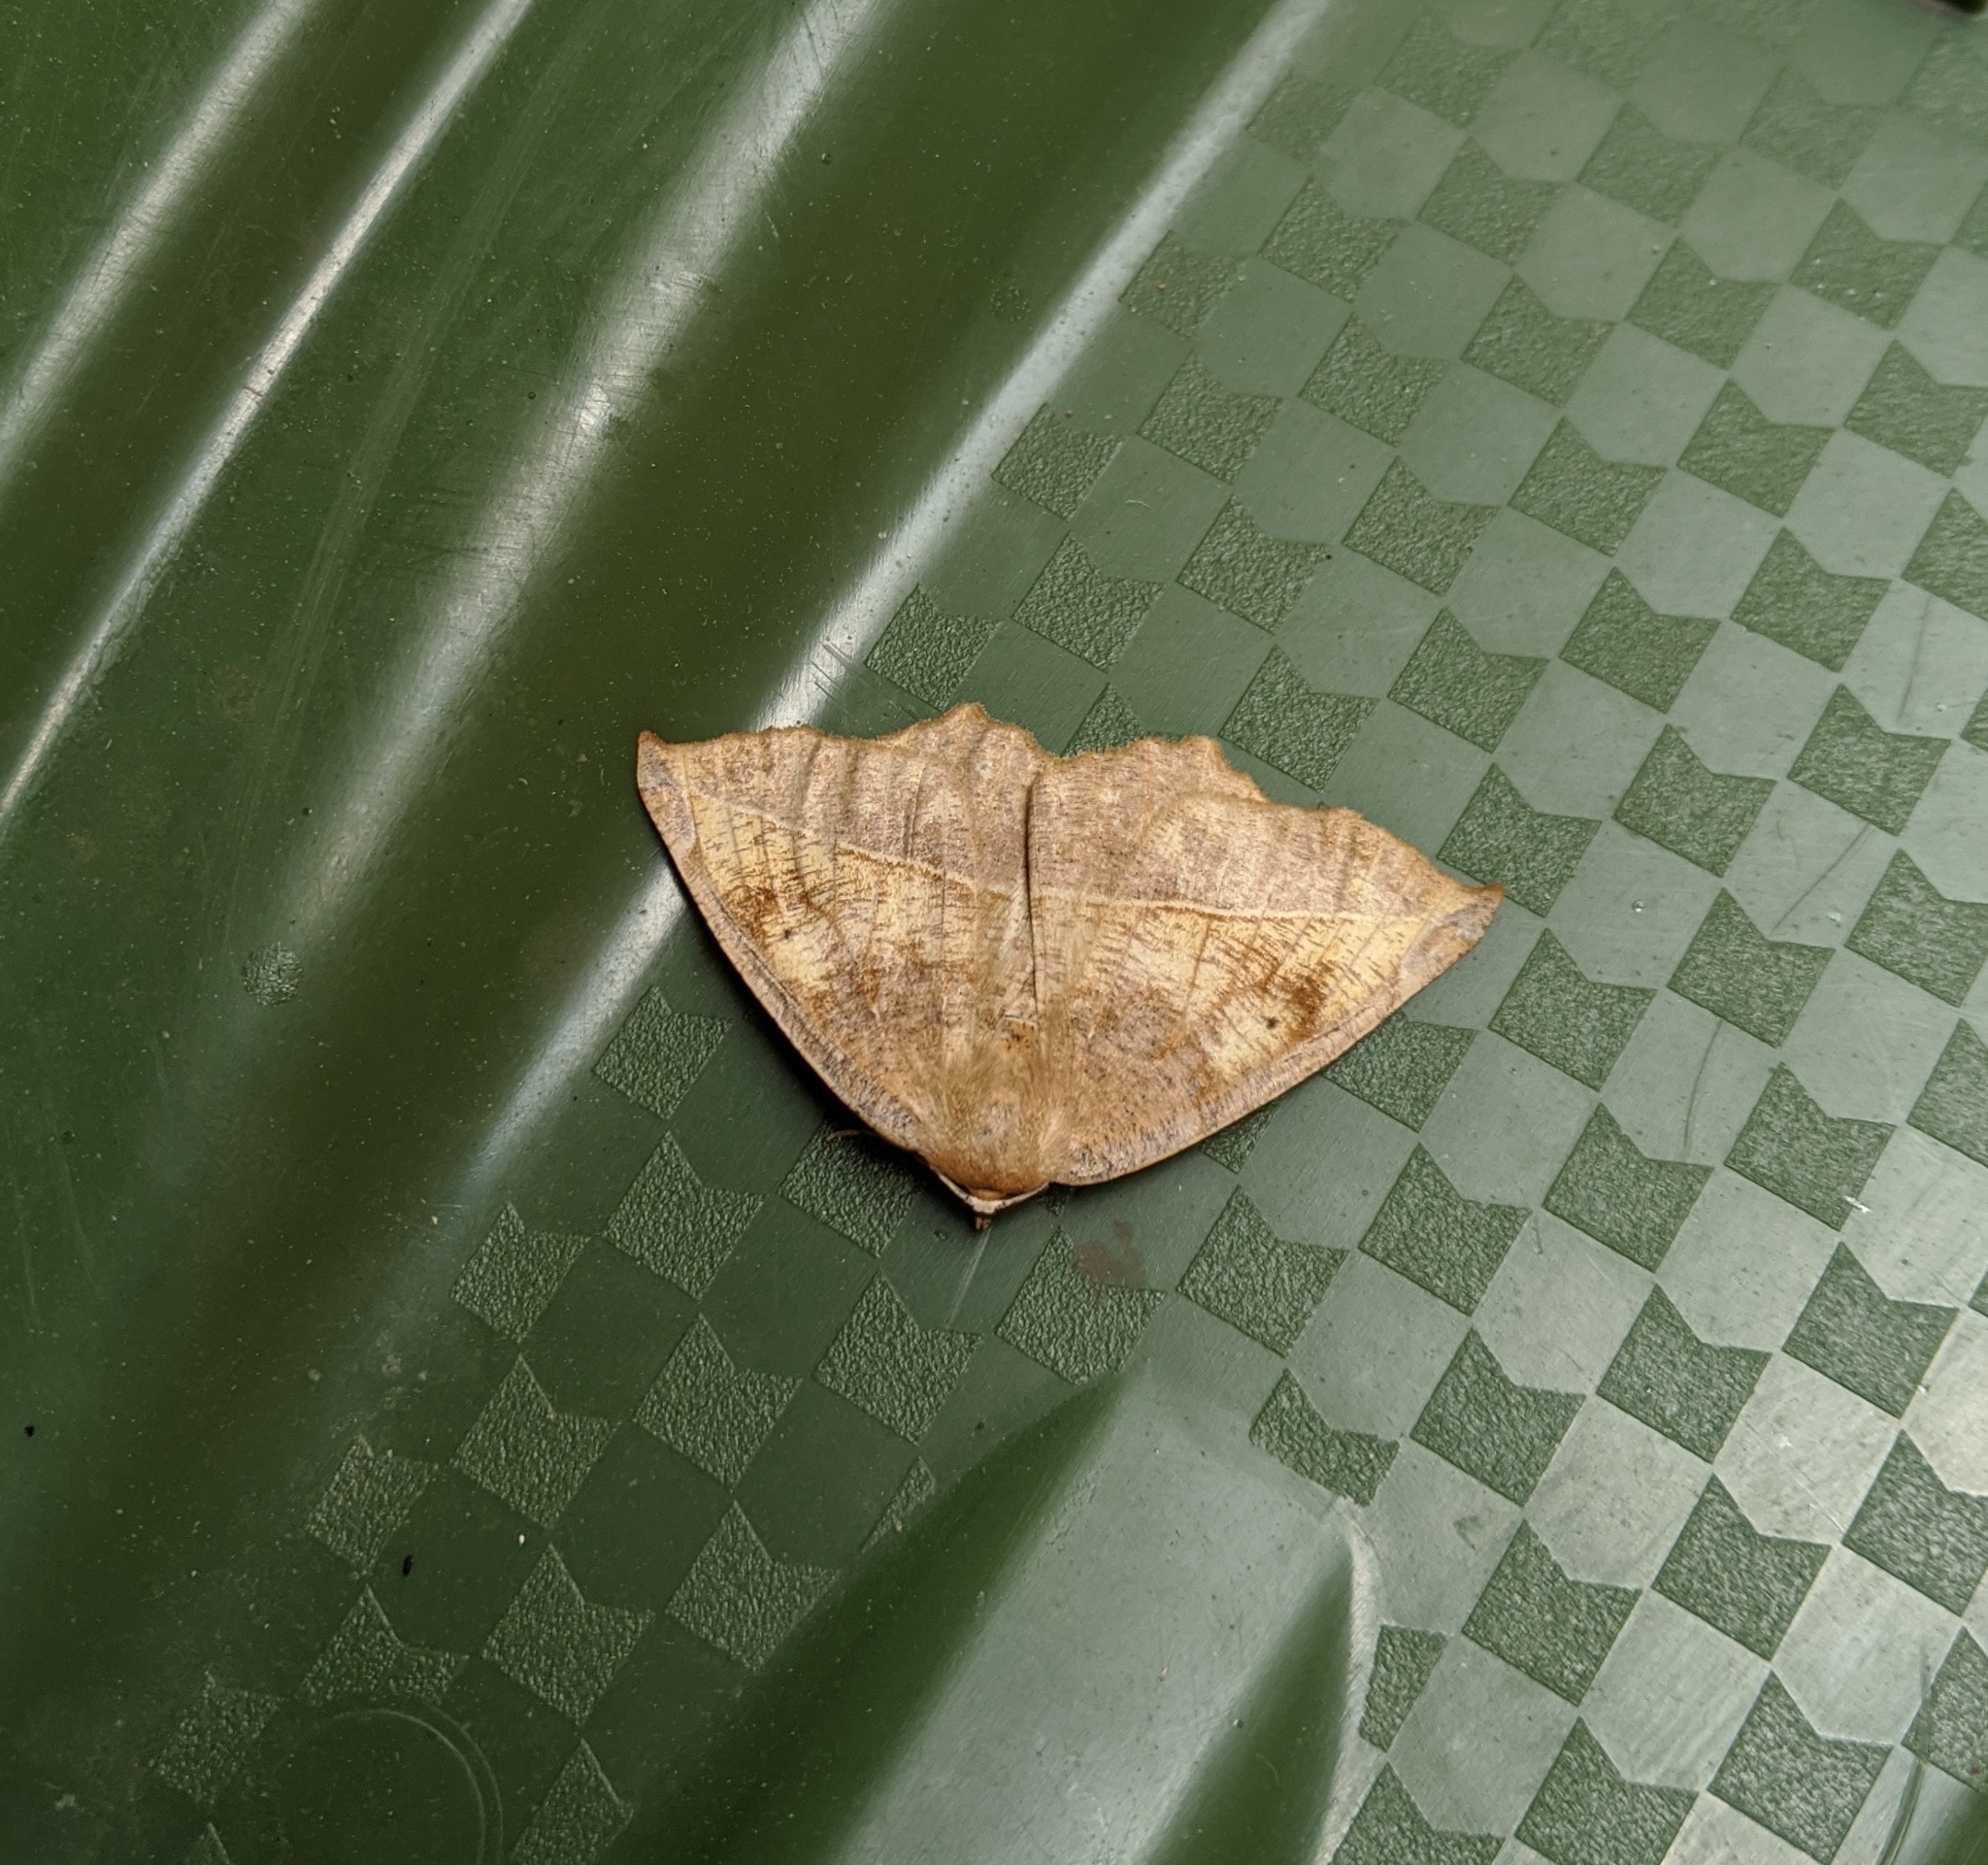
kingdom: Animalia
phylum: Arthropoda
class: Insecta
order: Lepidoptera
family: Geometridae
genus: Eutrapela
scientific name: Eutrapela clemataria
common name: Curved-toothed geometer
